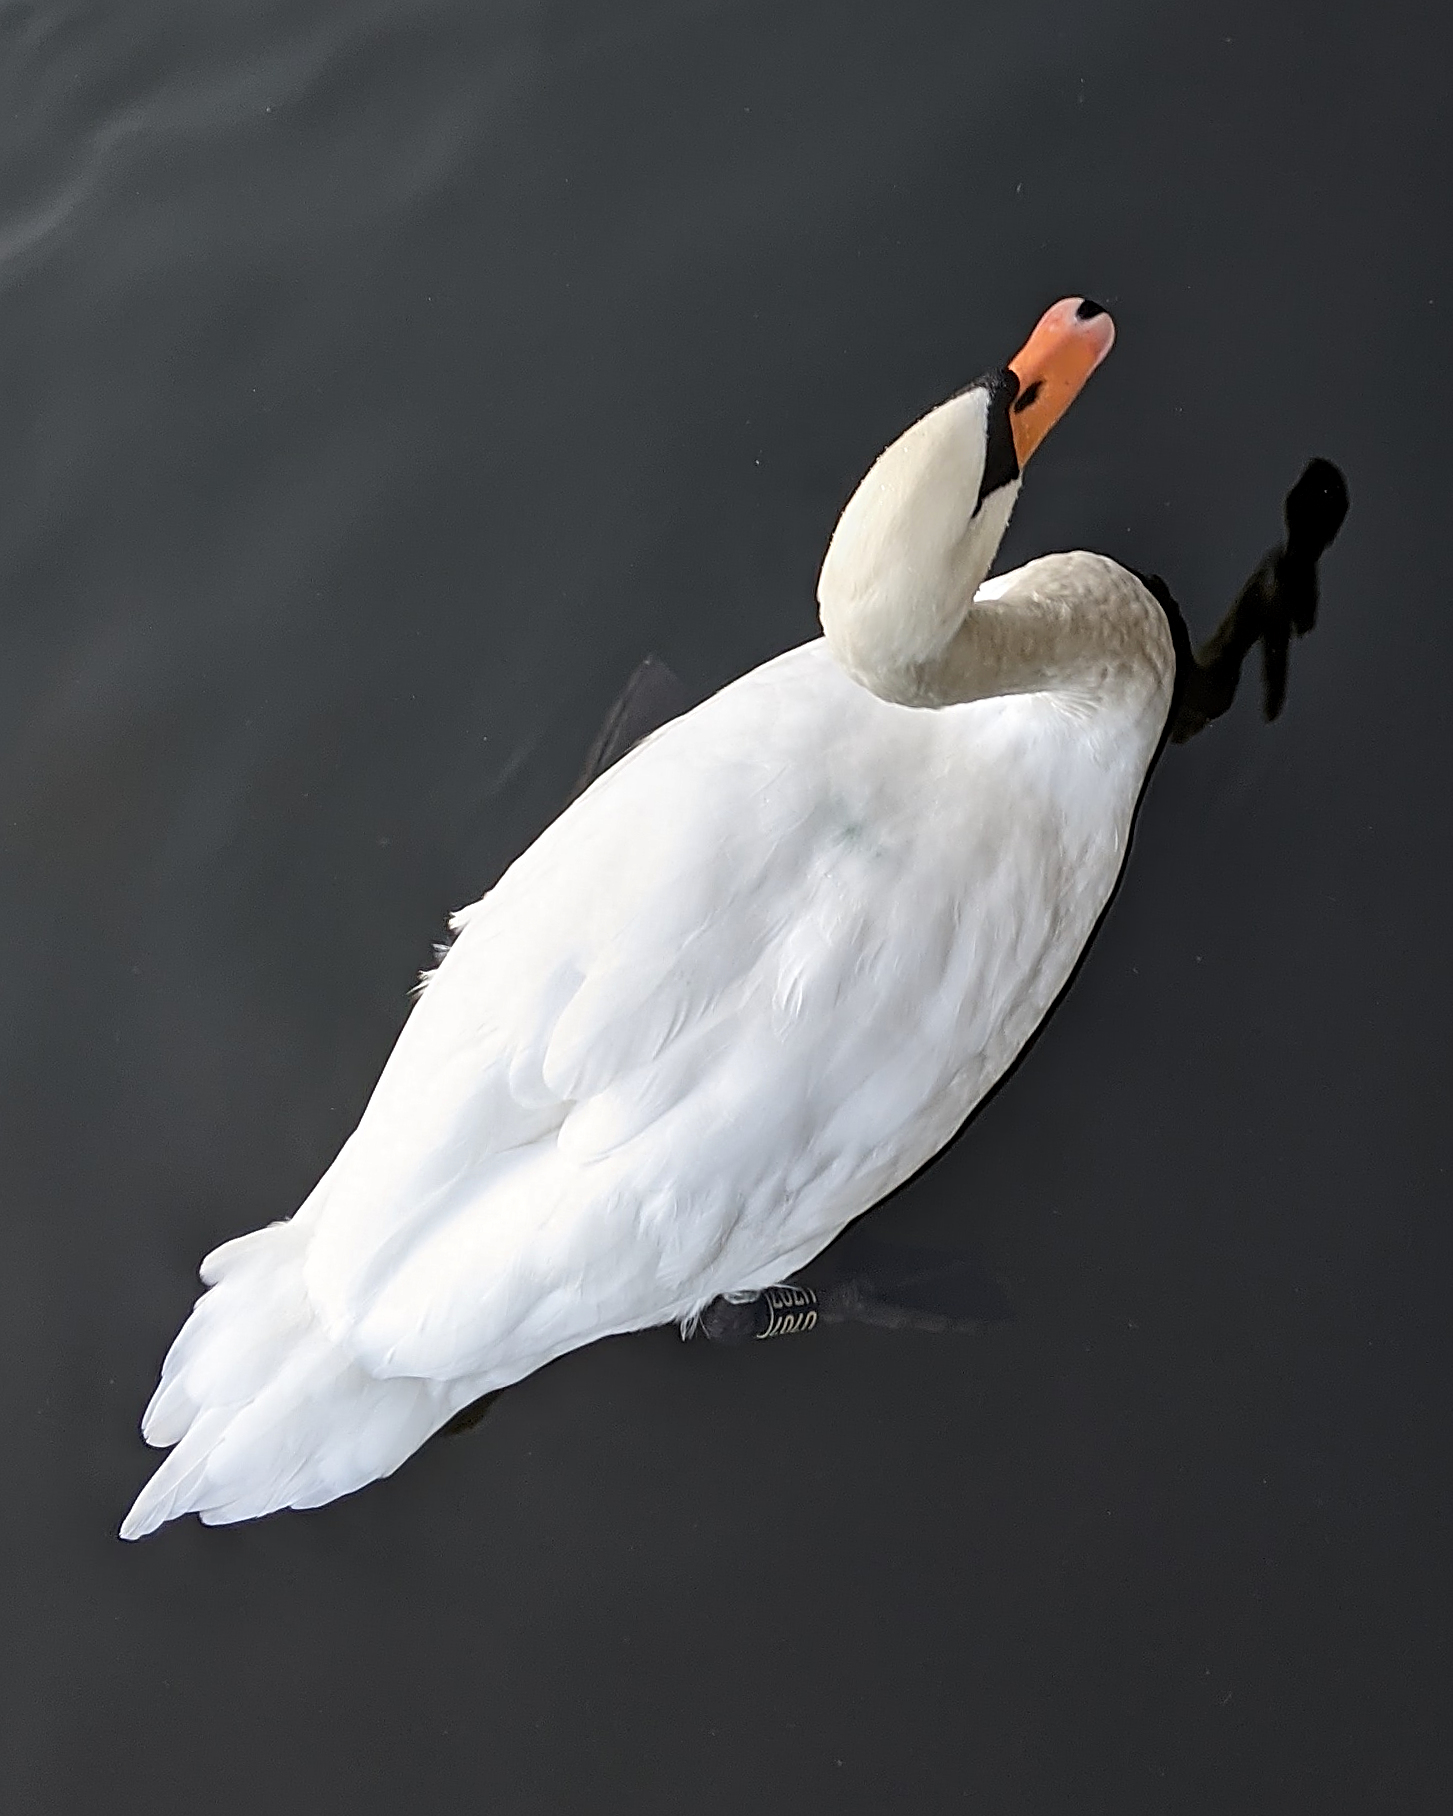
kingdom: Animalia
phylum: Chordata
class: Aves
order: Anseriformes
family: Anatidae
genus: Cygnus
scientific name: Cygnus olor
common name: Mute swan
